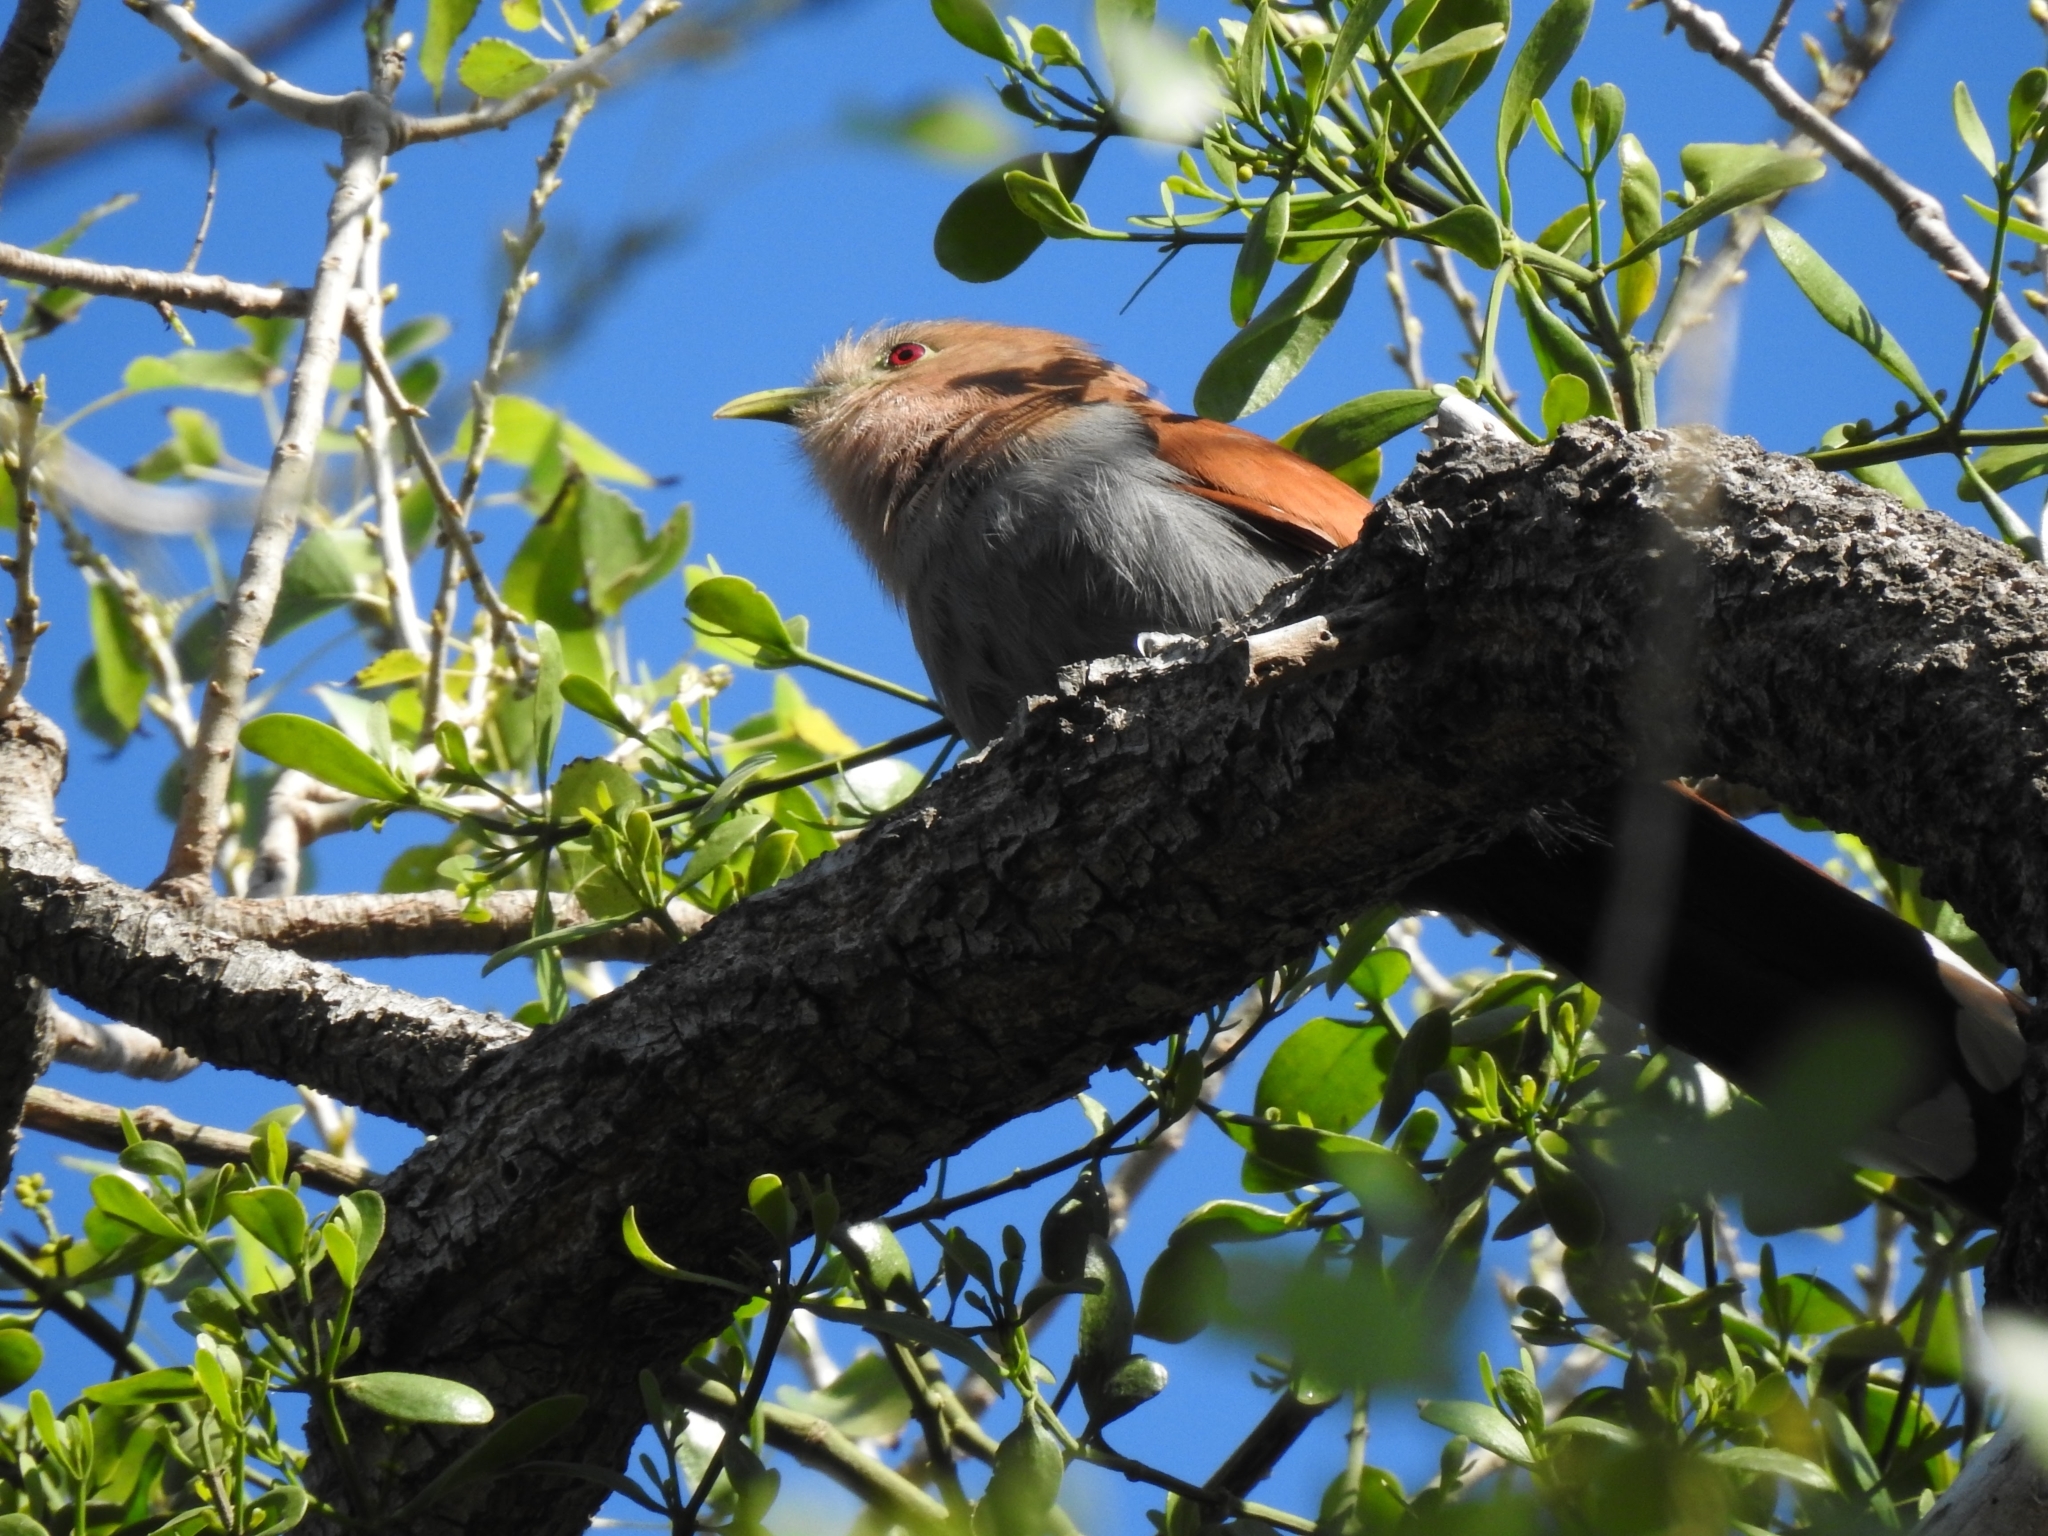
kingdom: Animalia
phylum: Chordata
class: Aves
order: Cuculiformes
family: Cuculidae
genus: Piaya
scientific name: Piaya cayana
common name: Squirrel cuckoo
